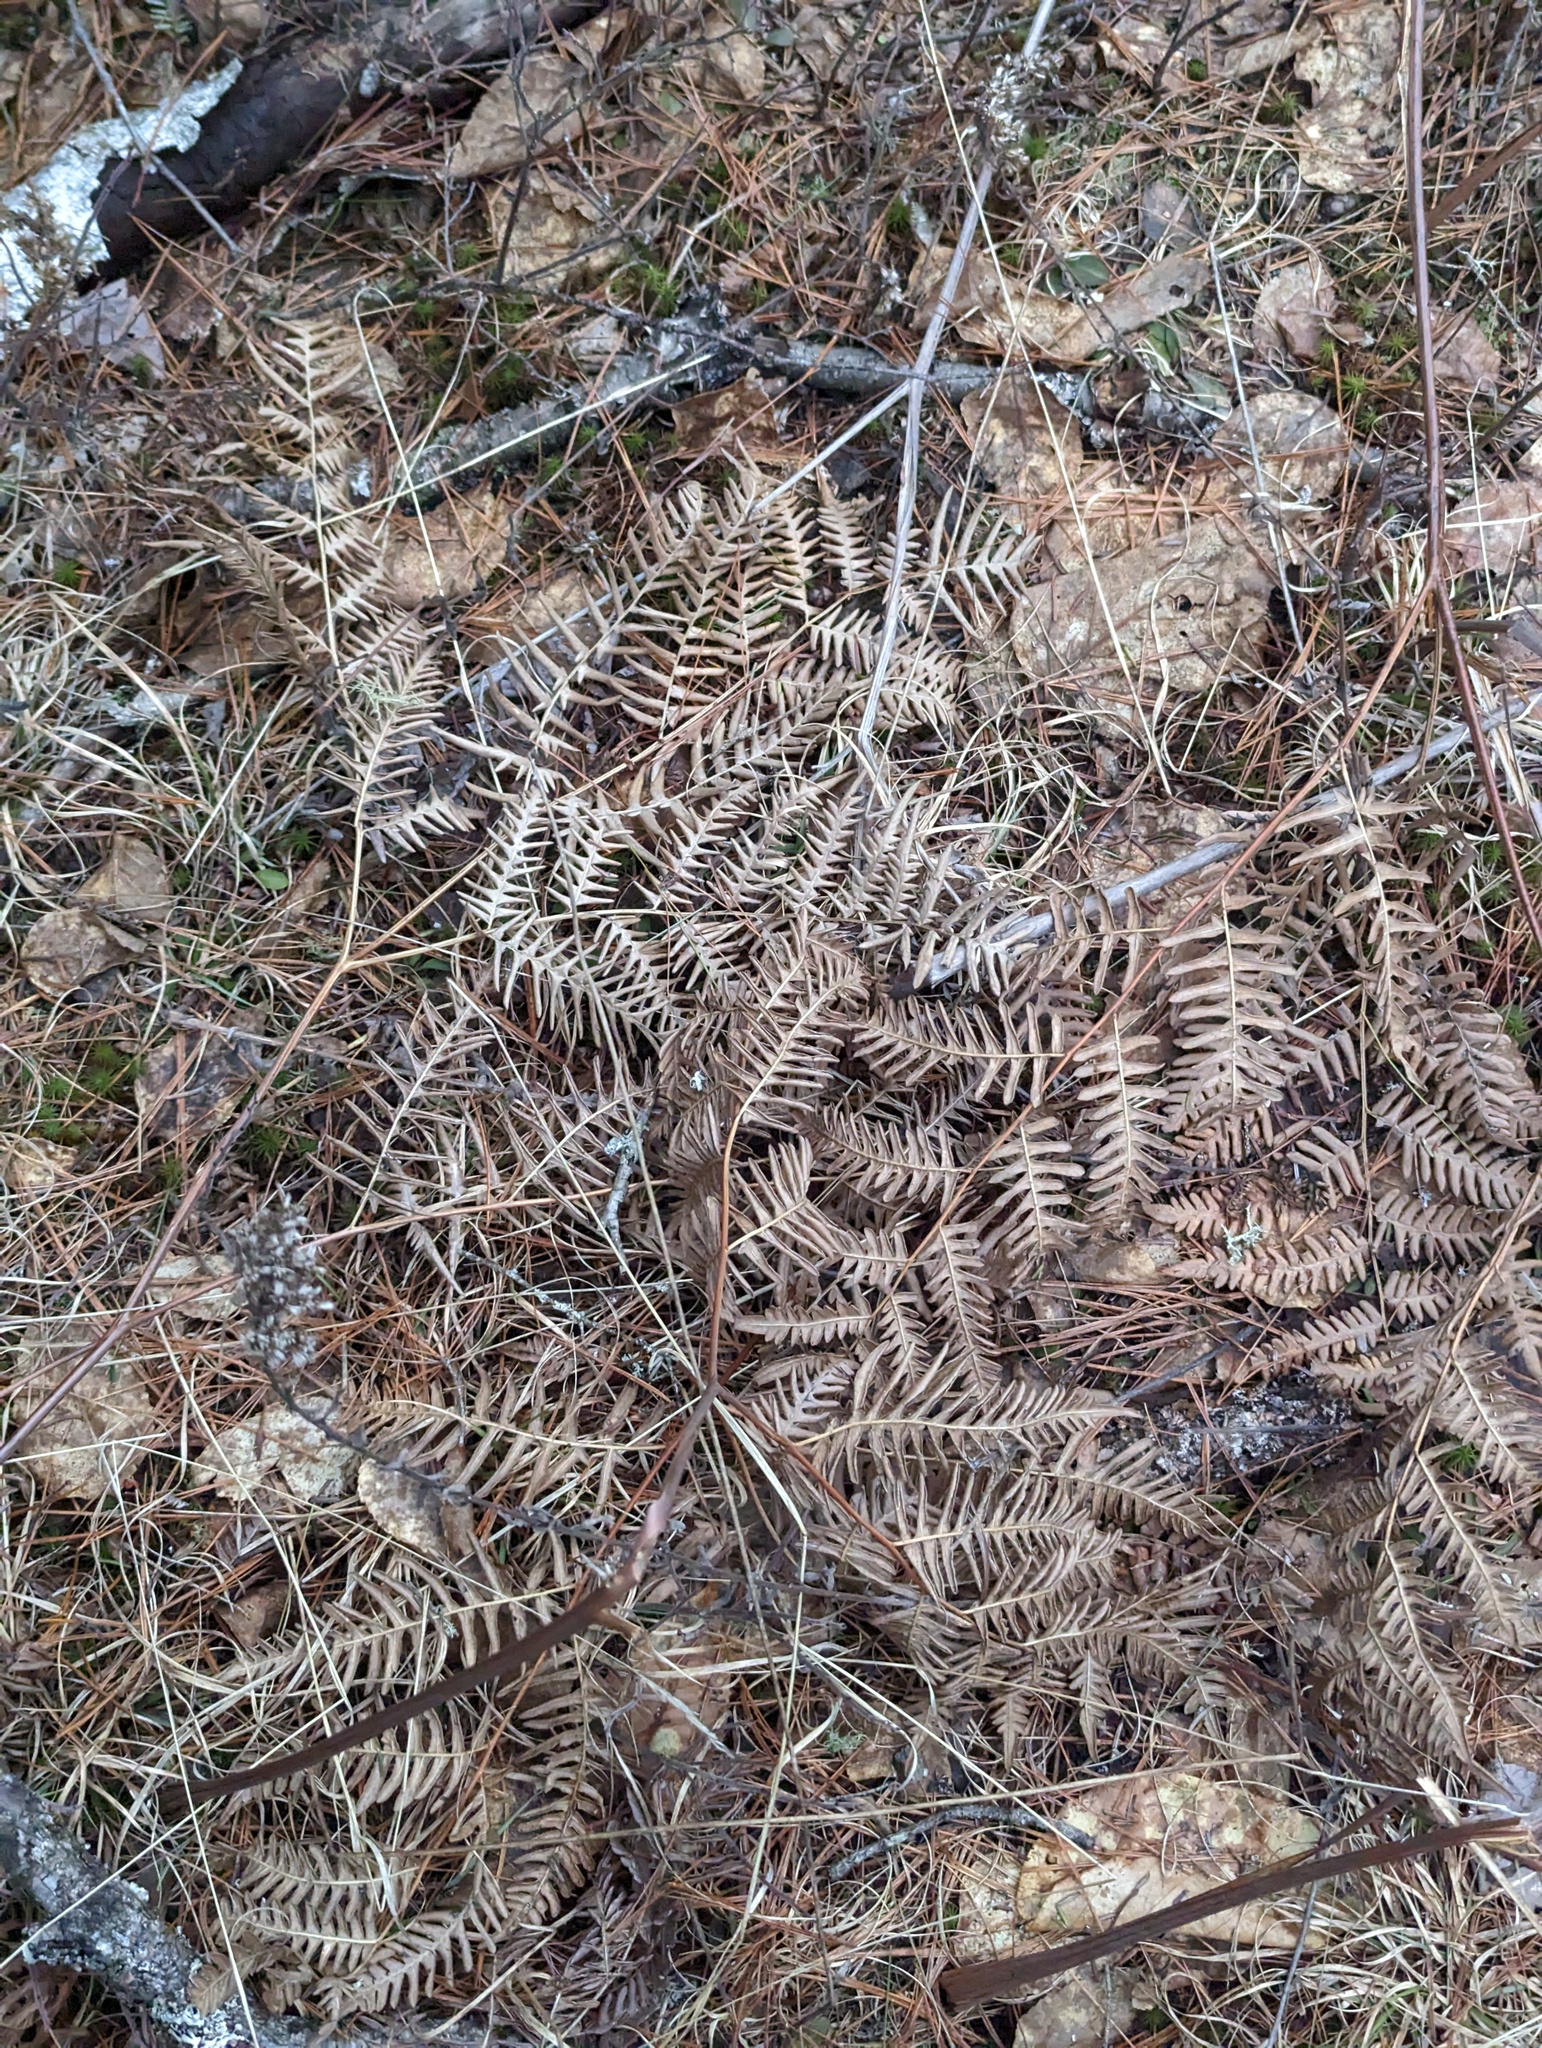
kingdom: Plantae
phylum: Tracheophyta
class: Polypodiopsida
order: Polypodiales
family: Dennstaedtiaceae
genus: Pteridium
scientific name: Pteridium aquilinum
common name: Bracken
